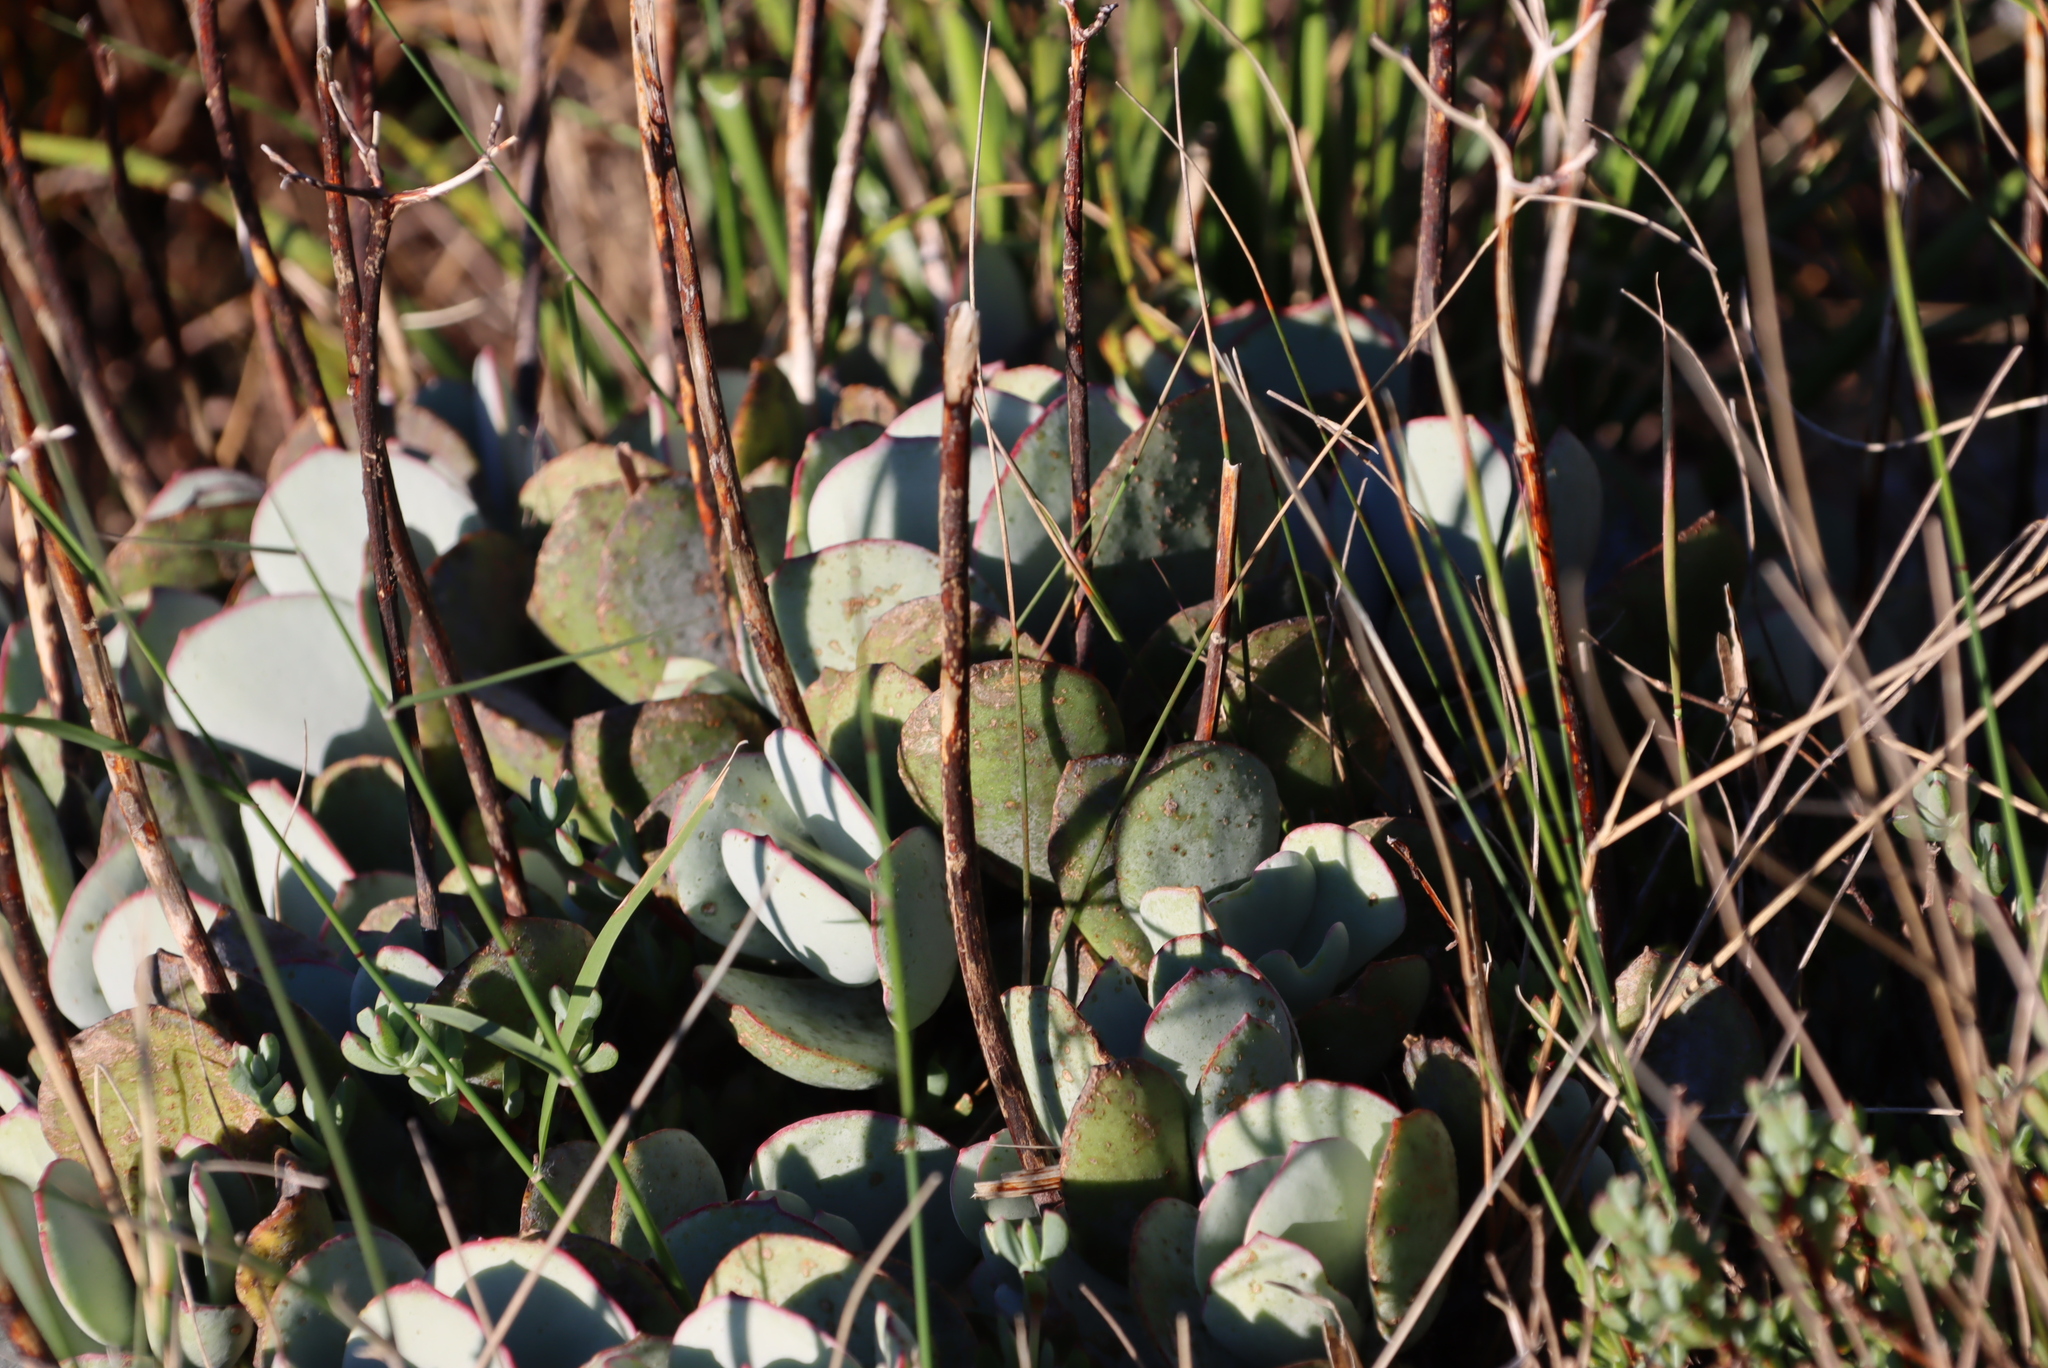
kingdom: Plantae
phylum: Tracheophyta
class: Magnoliopsida
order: Saxifragales
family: Crassulaceae
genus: Cotyledon
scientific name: Cotyledon orbiculata
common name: Pig's ear
